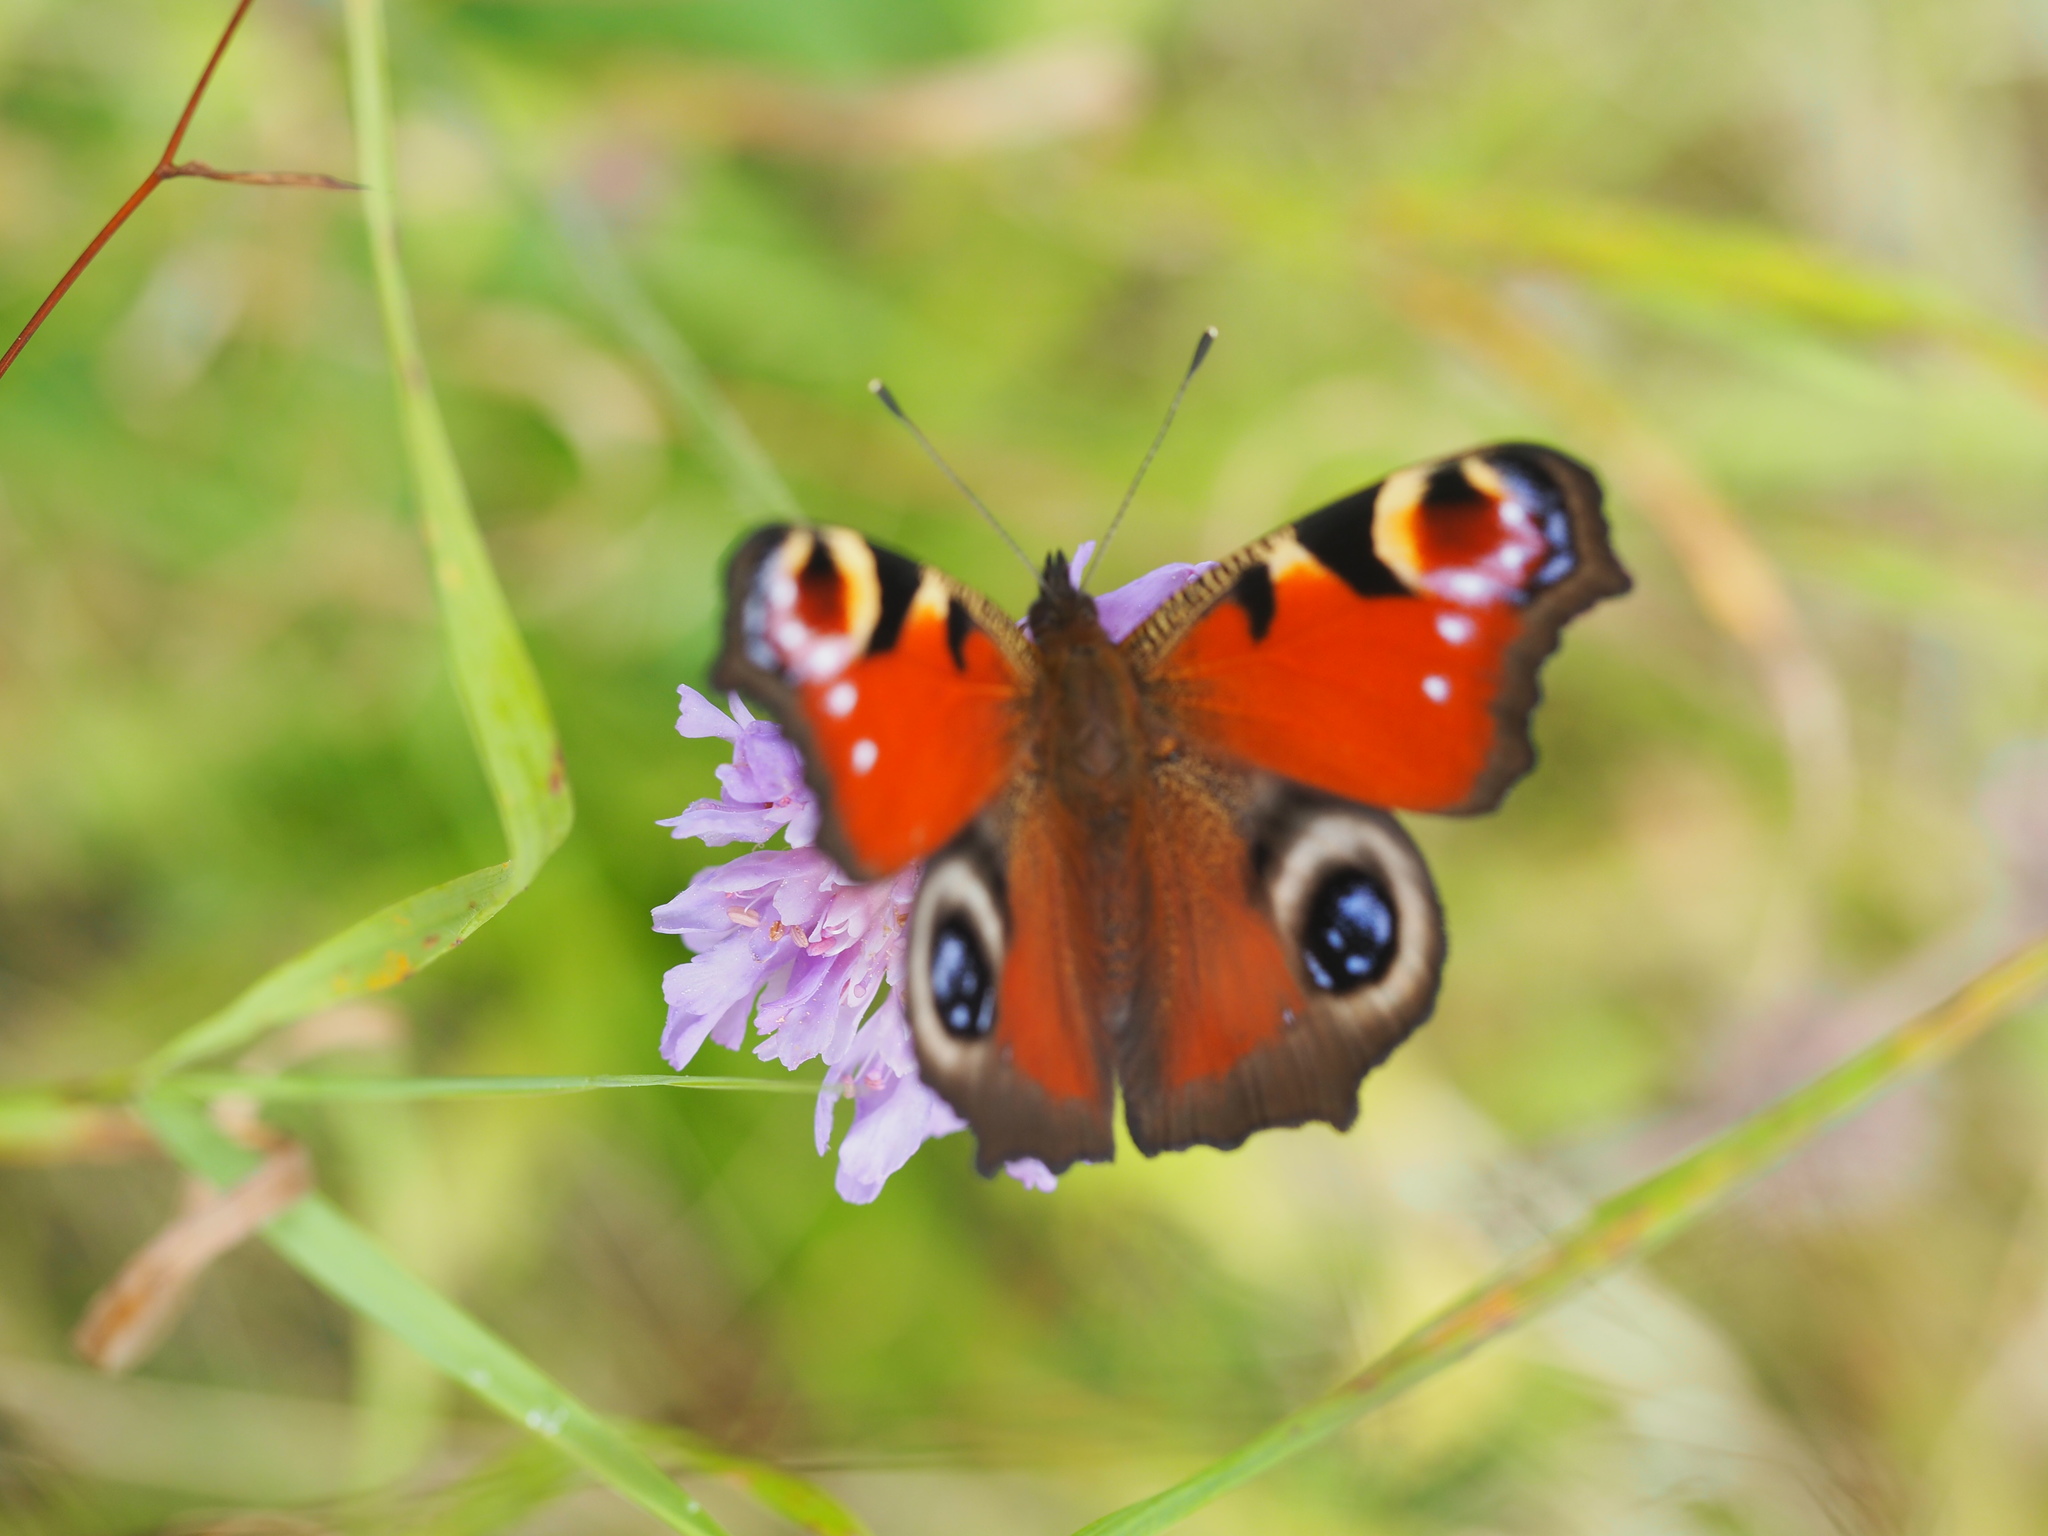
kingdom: Animalia
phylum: Arthropoda
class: Insecta
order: Lepidoptera
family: Nymphalidae
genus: Aglais
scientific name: Aglais io
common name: Peacock
